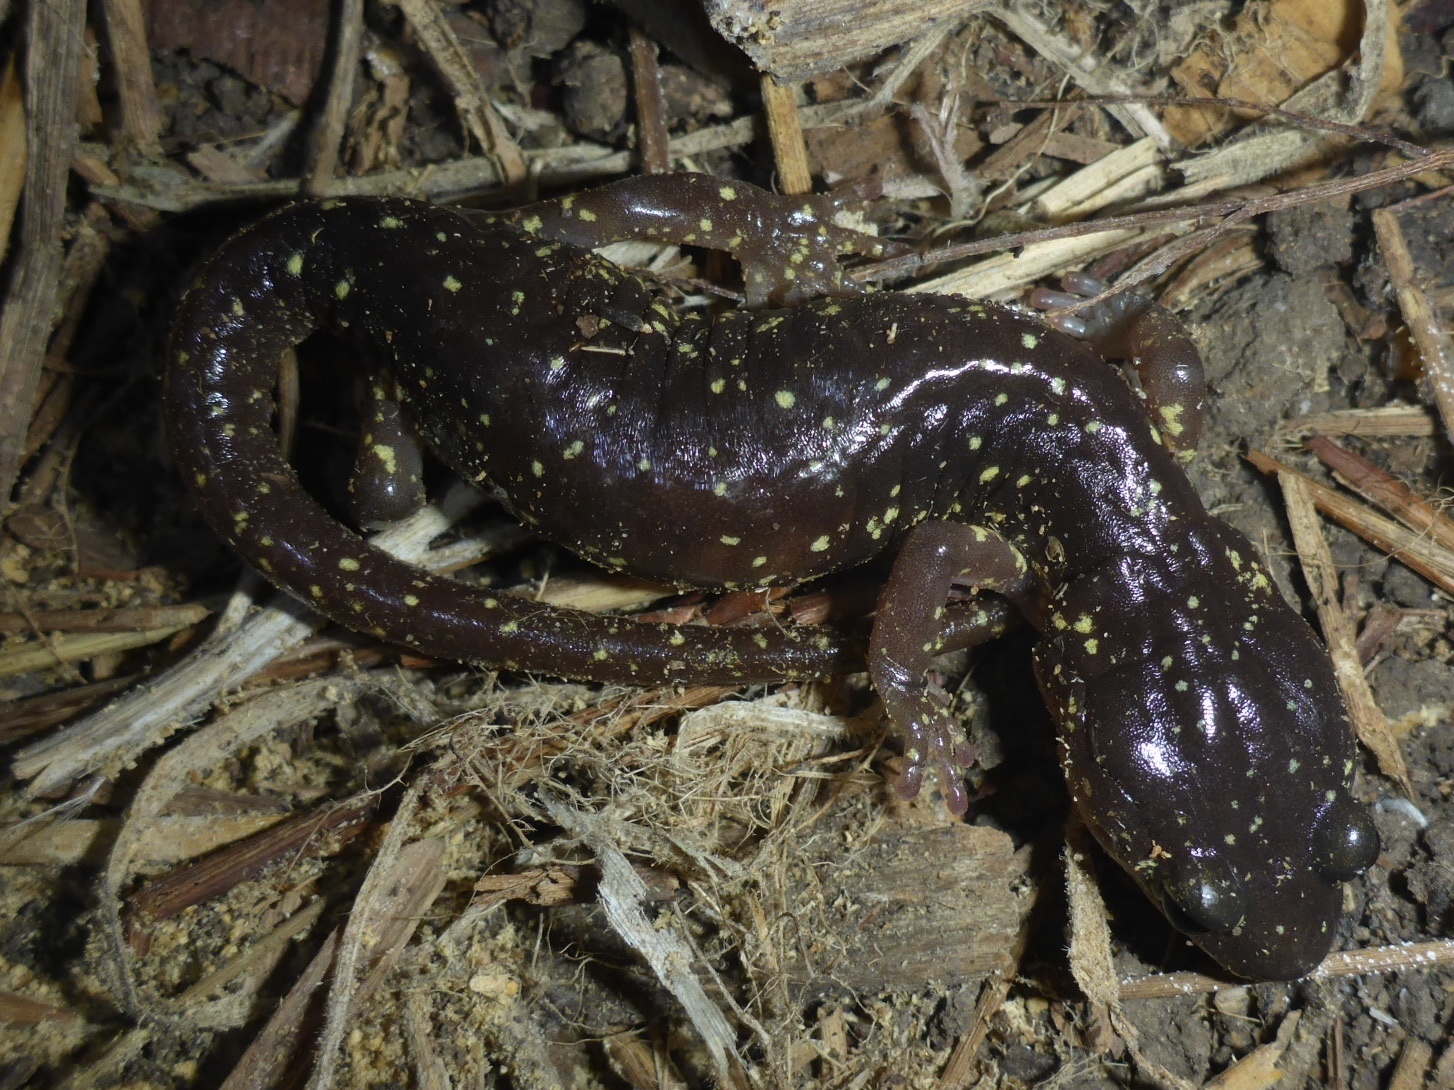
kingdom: Animalia
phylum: Chordata
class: Amphibia
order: Caudata
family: Plethodontidae
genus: Aneides
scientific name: Aneides lugubris
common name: Arboreal salamander
